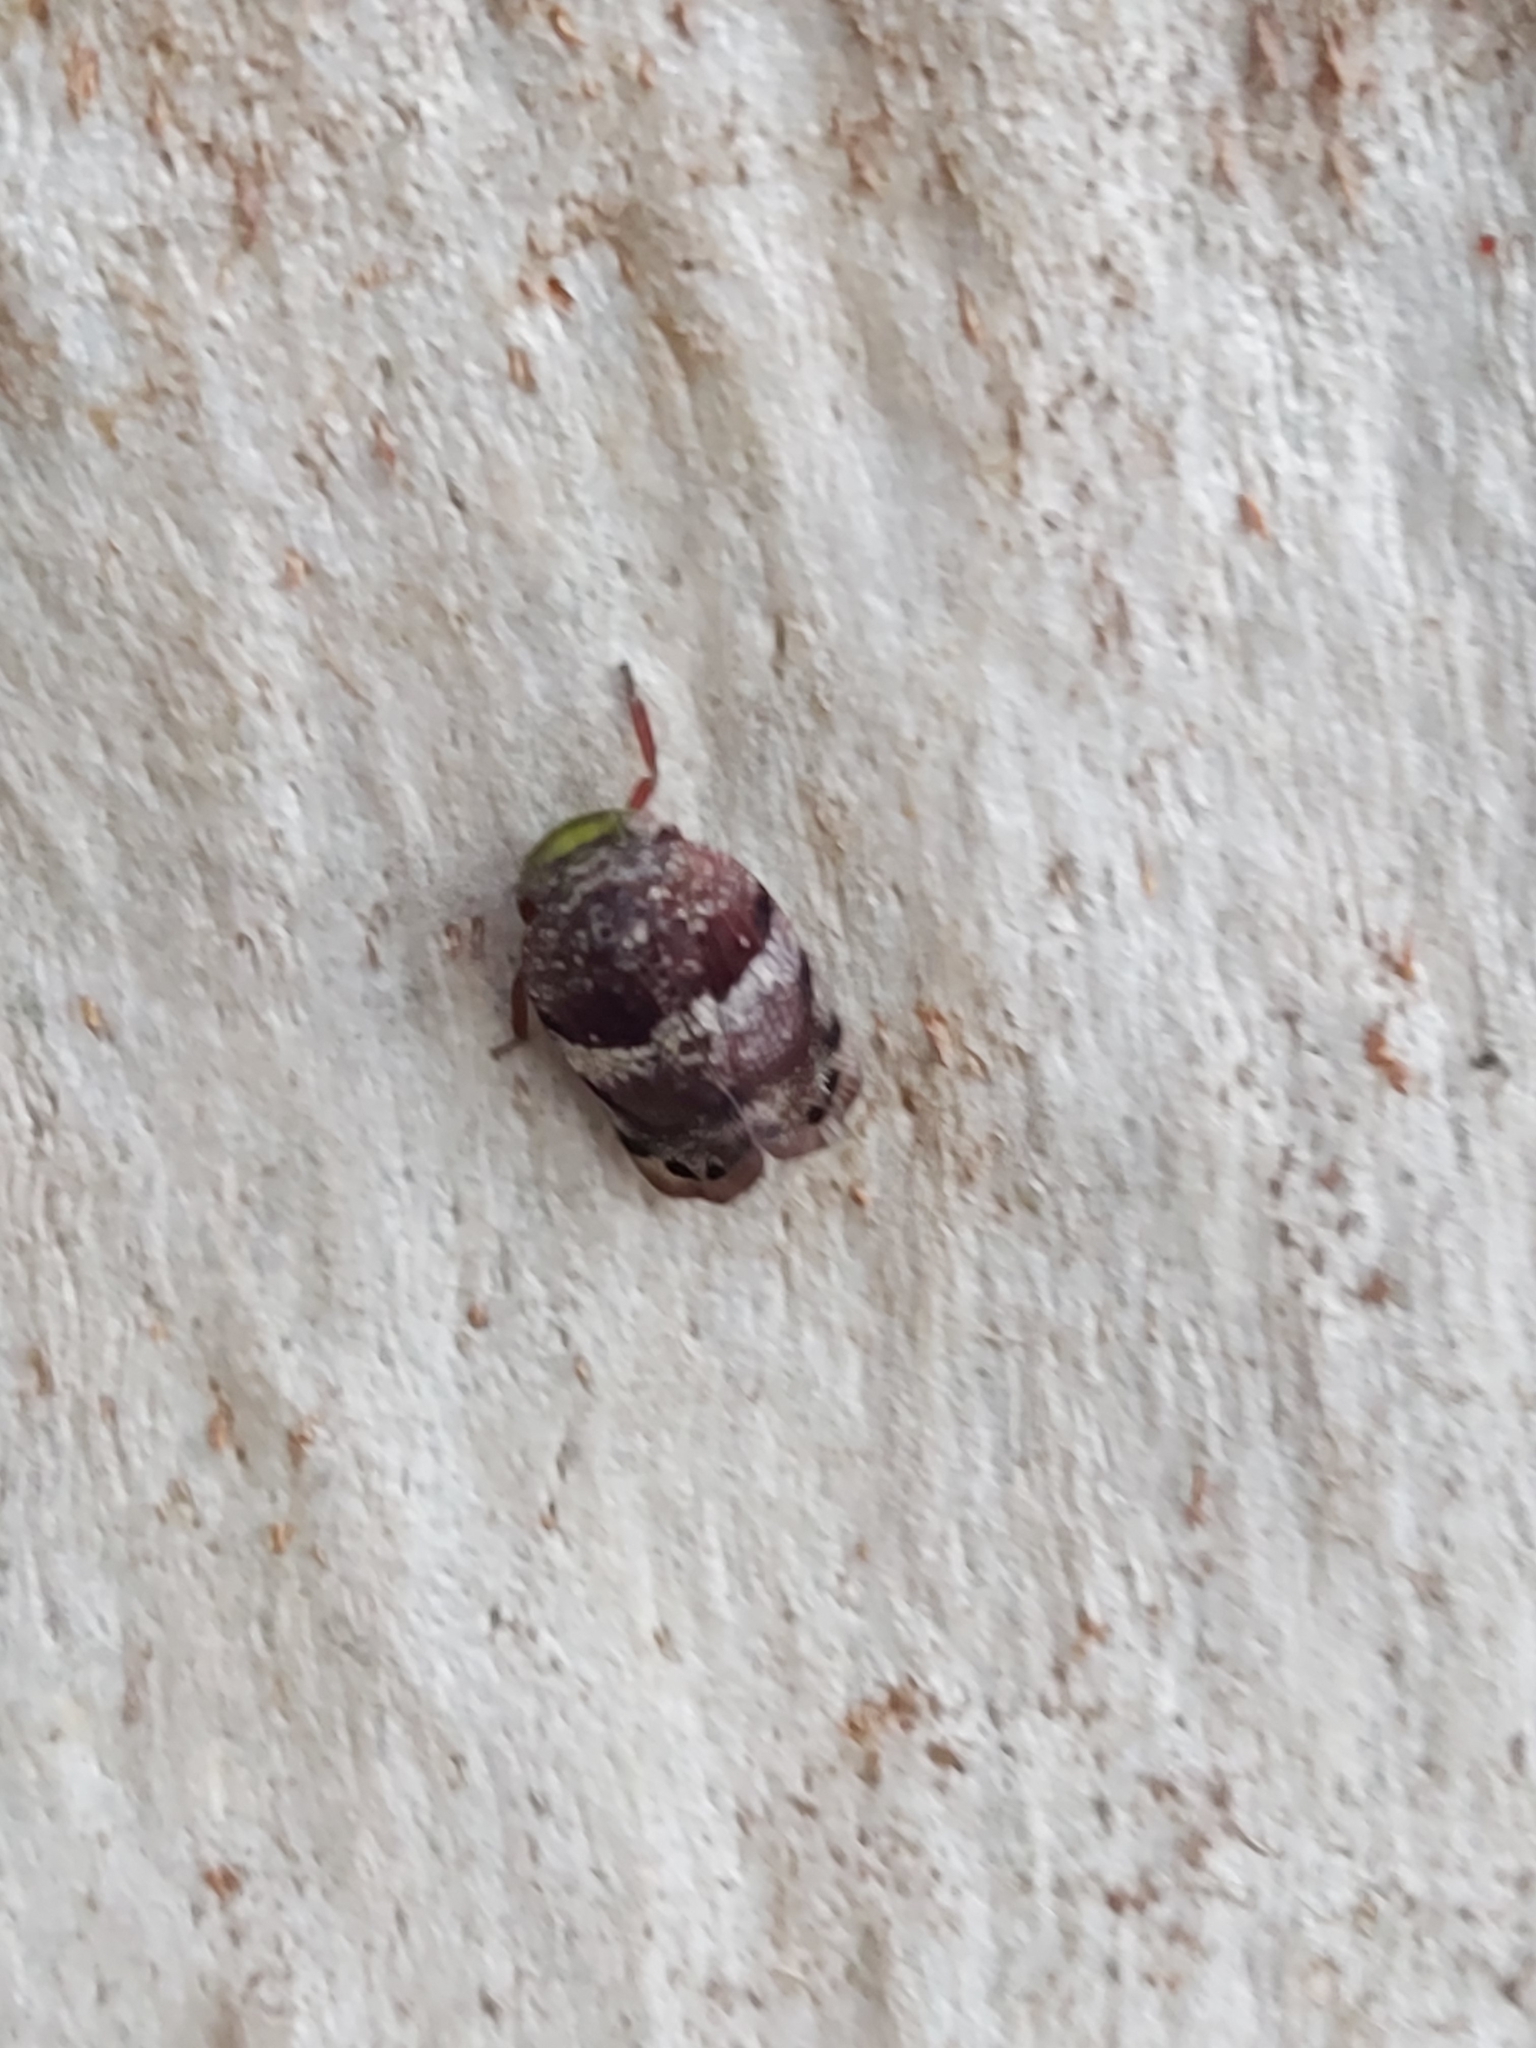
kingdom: Animalia
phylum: Arthropoda
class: Insecta
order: Hemiptera
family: Eurybrachidae
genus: Platybrachys
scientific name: Platybrachys decemmacula
